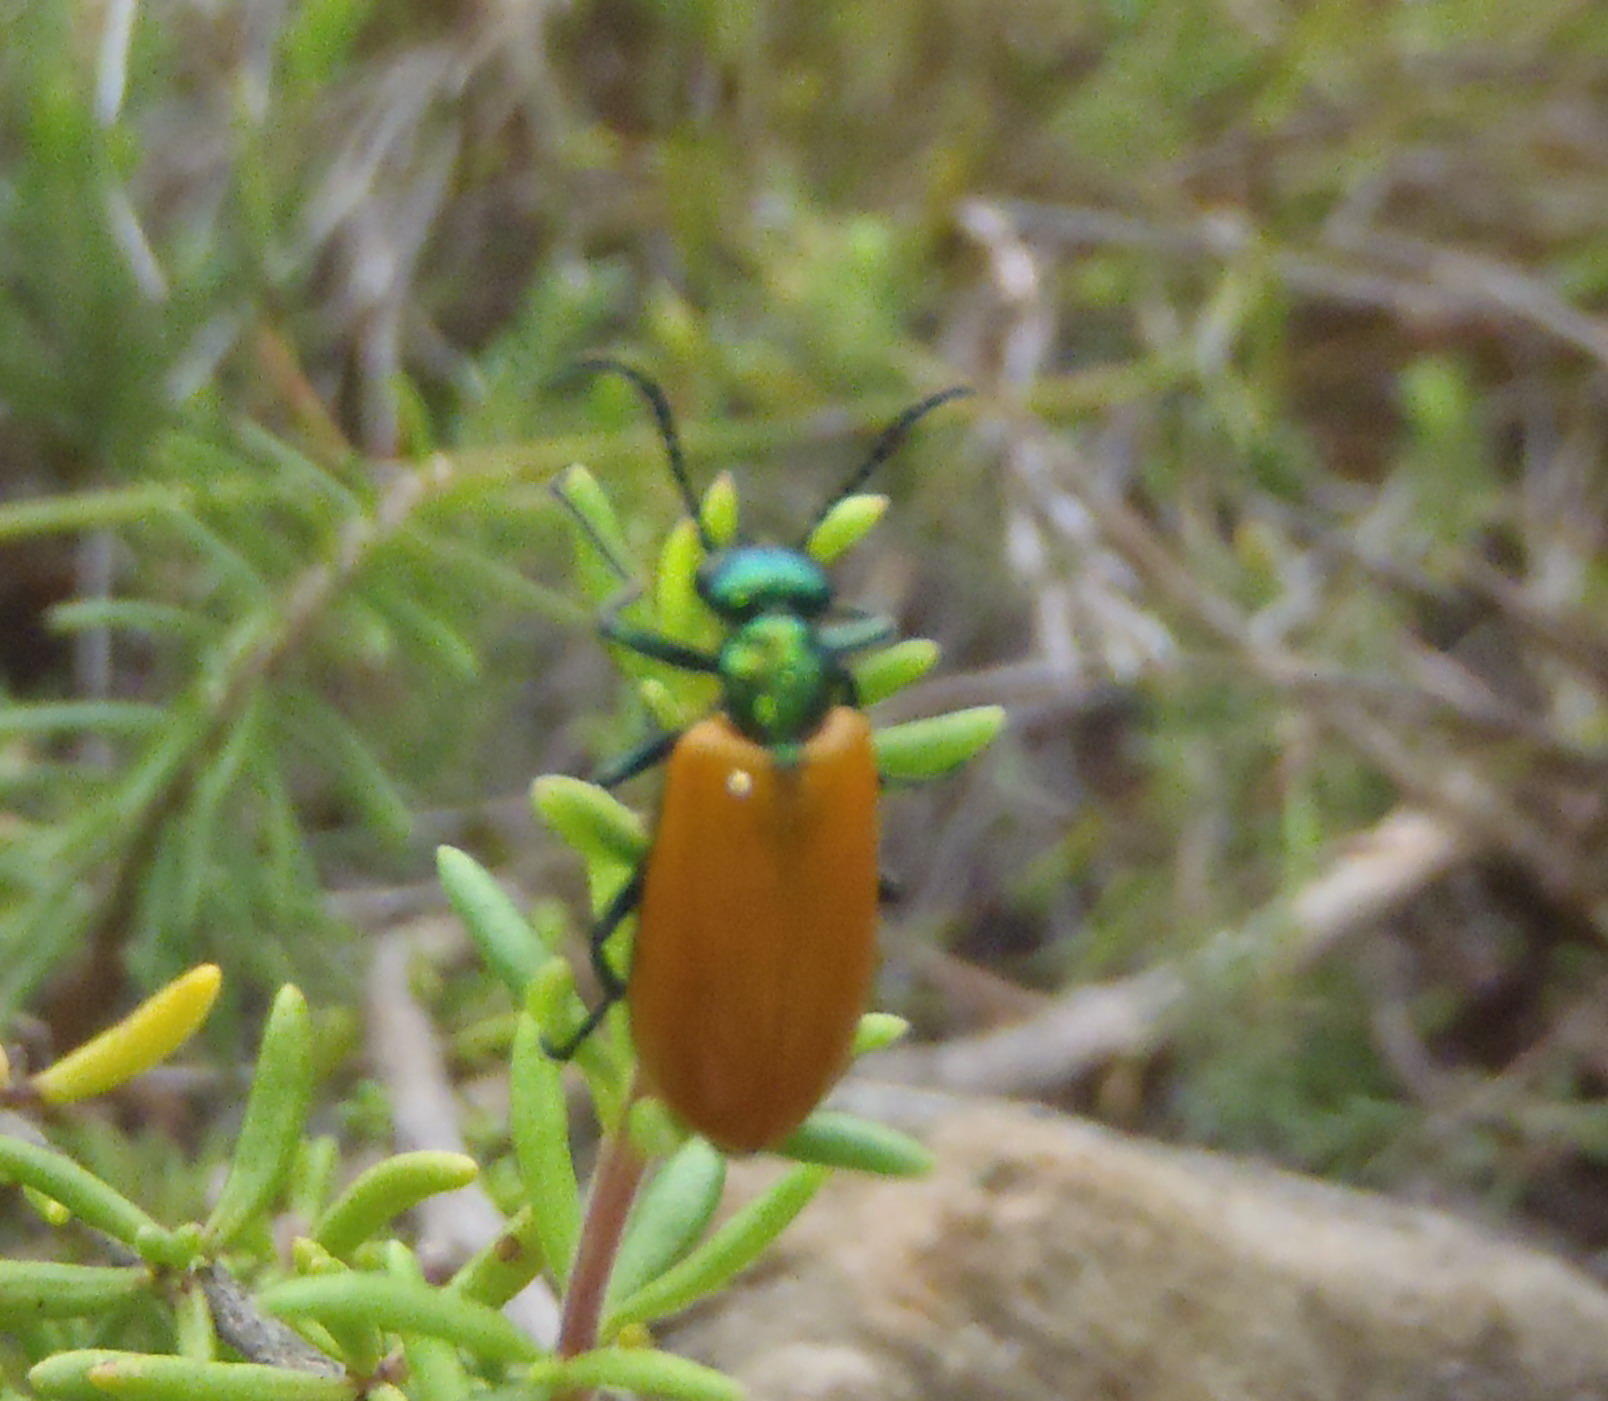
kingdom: Animalia
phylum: Arthropoda
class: Insecta
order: Coleoptera
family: Meloidae
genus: Prolytta
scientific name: Prolytta
